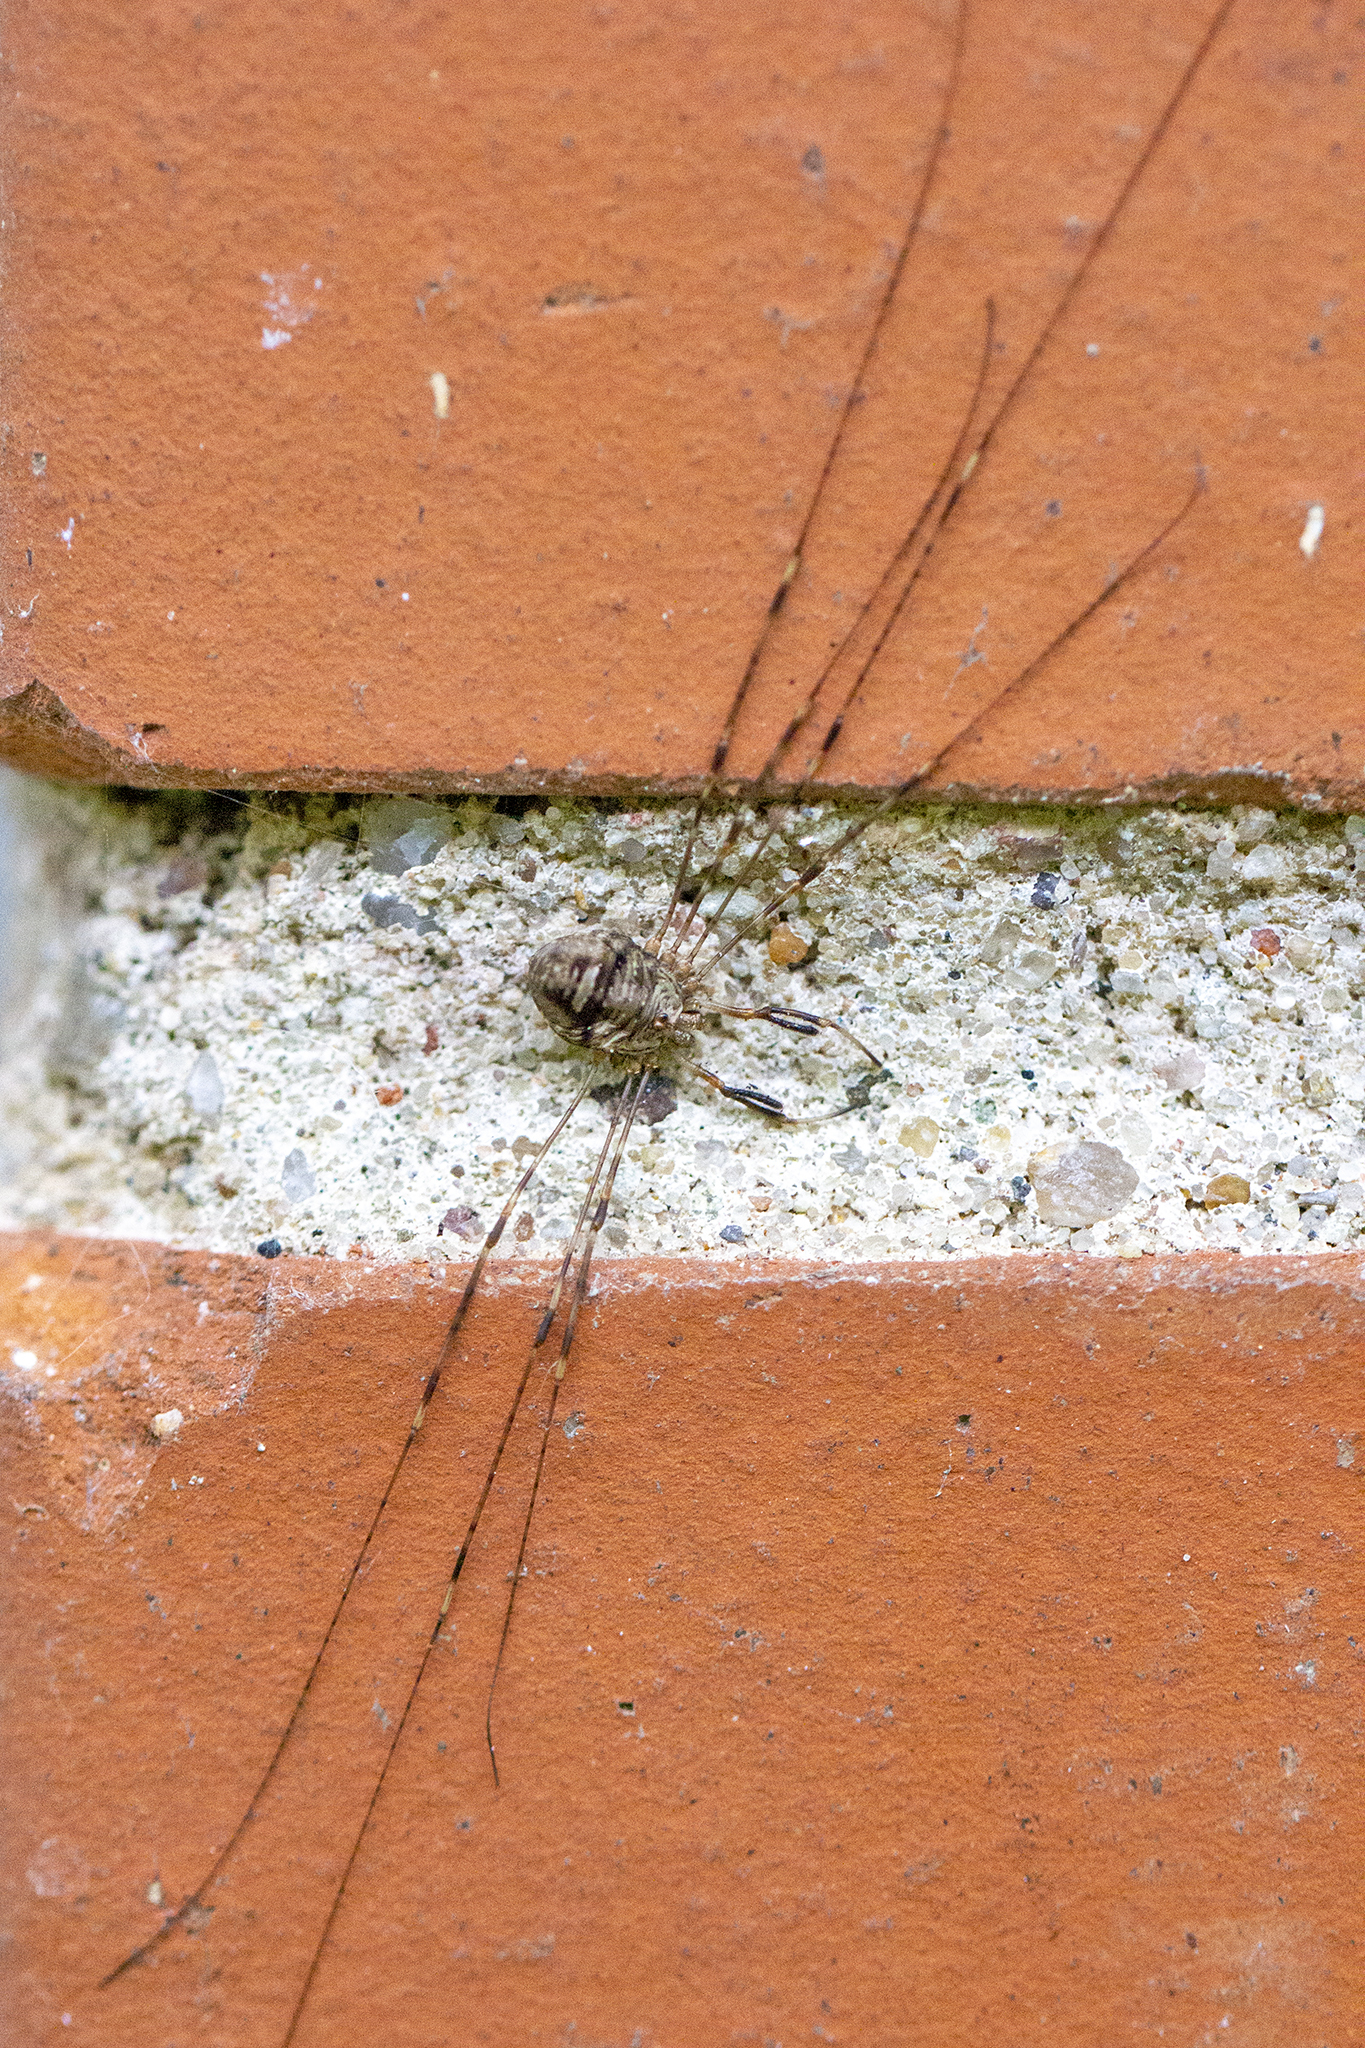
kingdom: Animalia
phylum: Arthropoda
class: Arachnida
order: Opiliones
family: Phalangiidae
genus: Dicranopalpus
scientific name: Dicranopalpus ramosus
